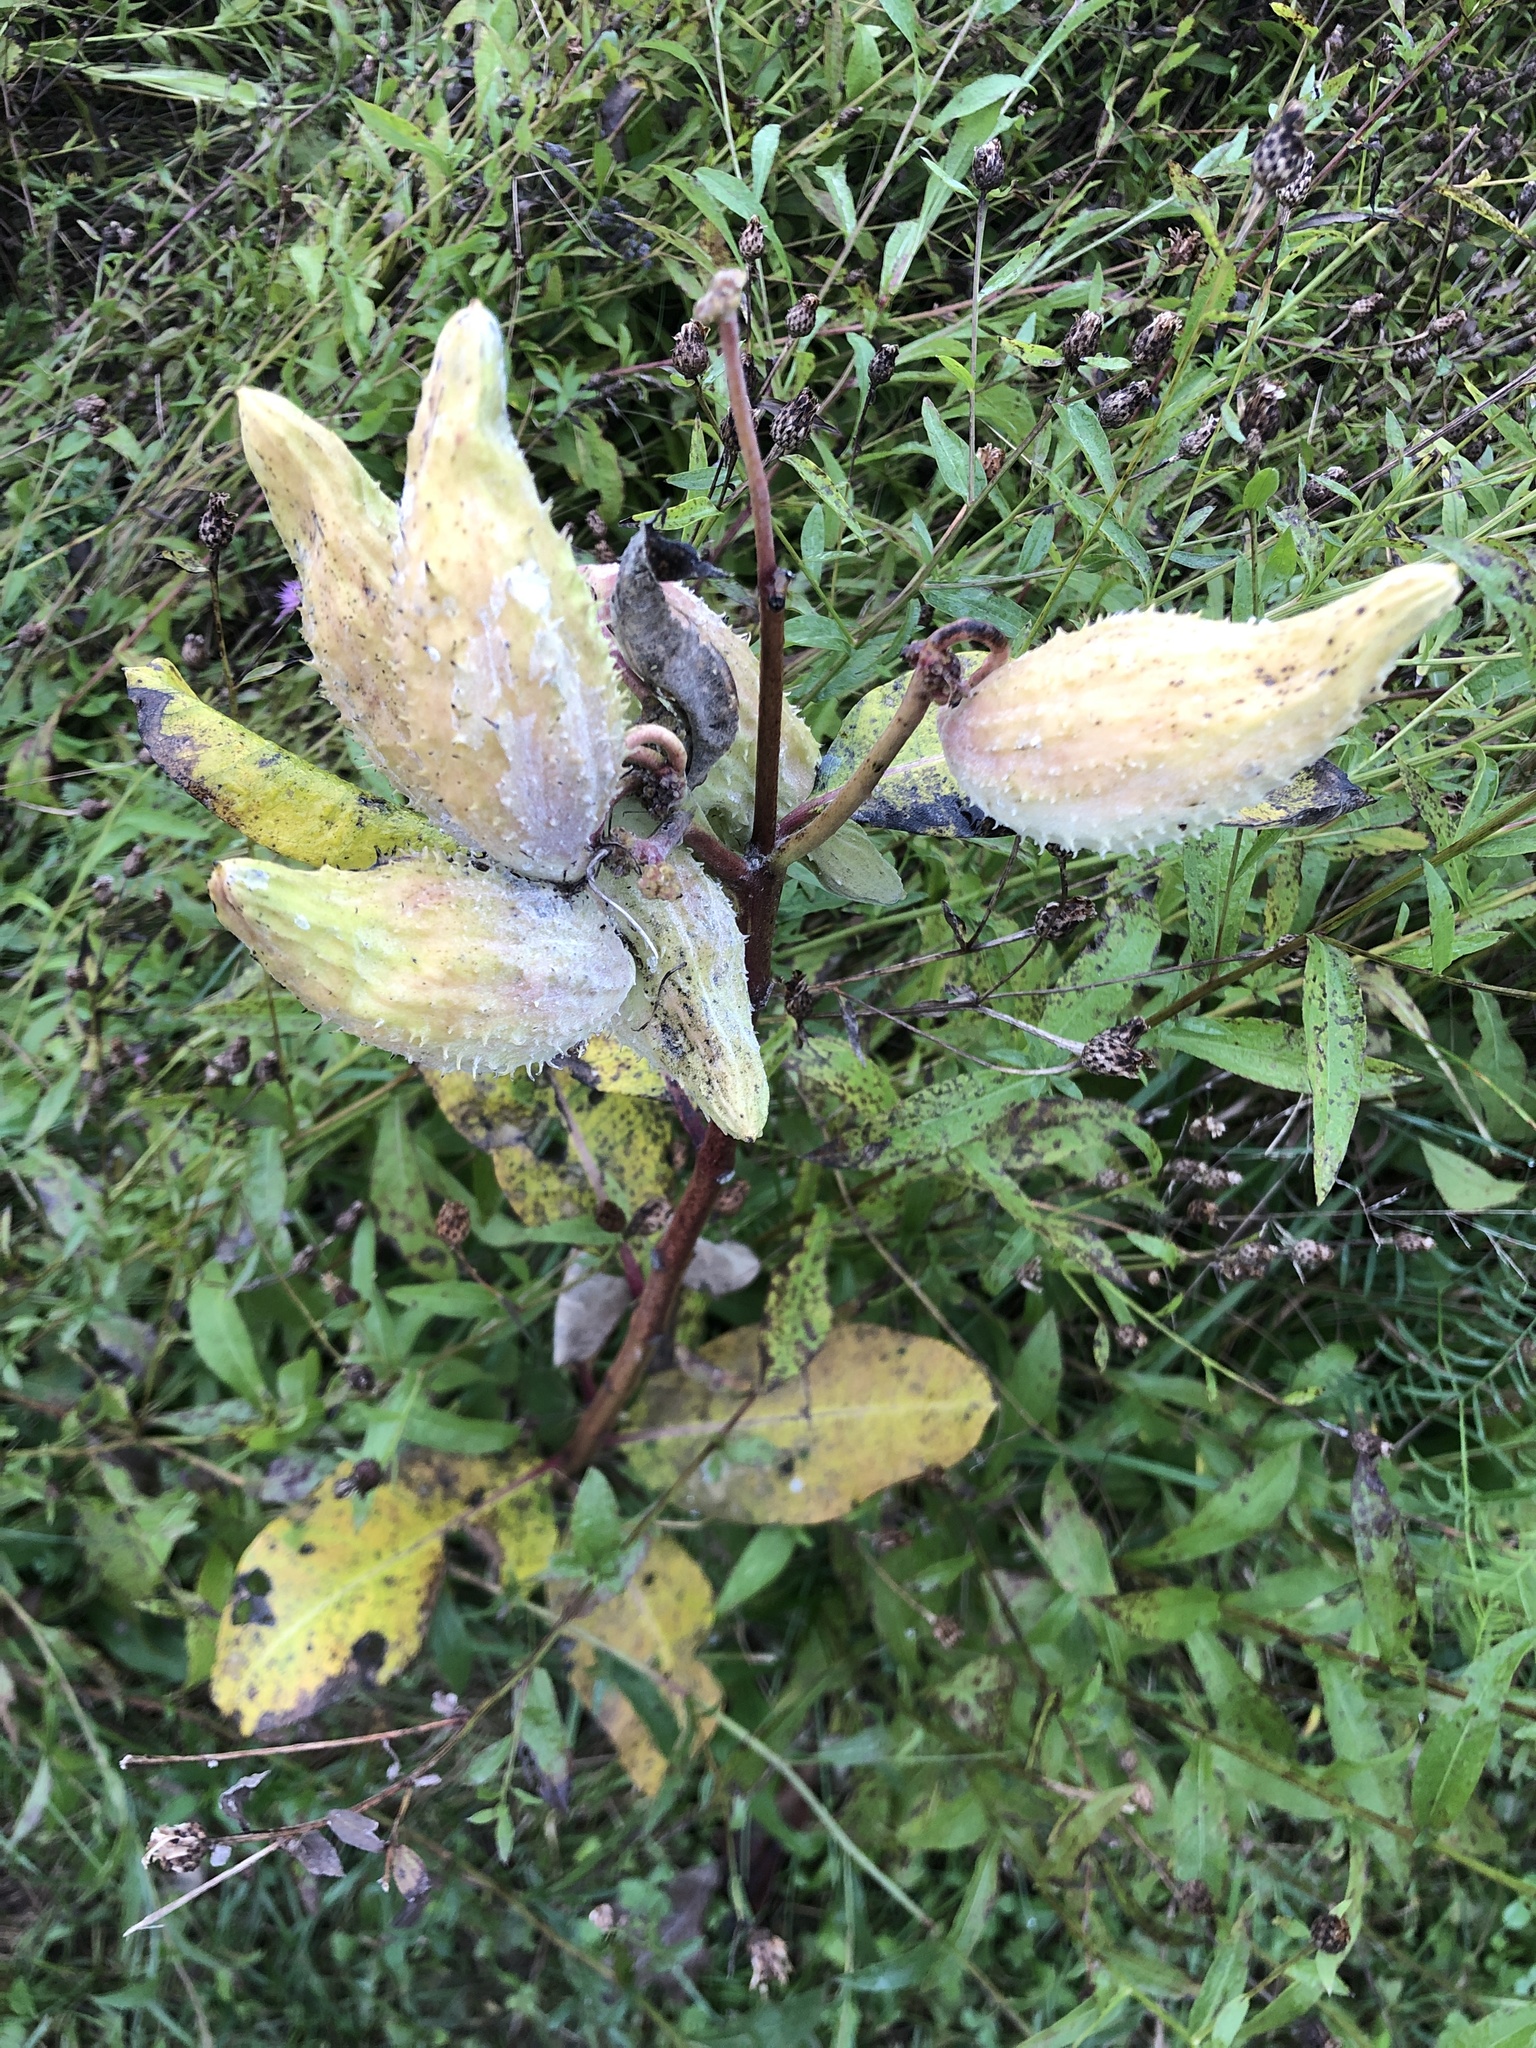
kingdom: Plantae
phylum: Tracheophyta
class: Magnoliopsida
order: Gentianales
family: Apocynaceae
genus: Asclepias
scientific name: Asclepias syriaca
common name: Common milkweed
